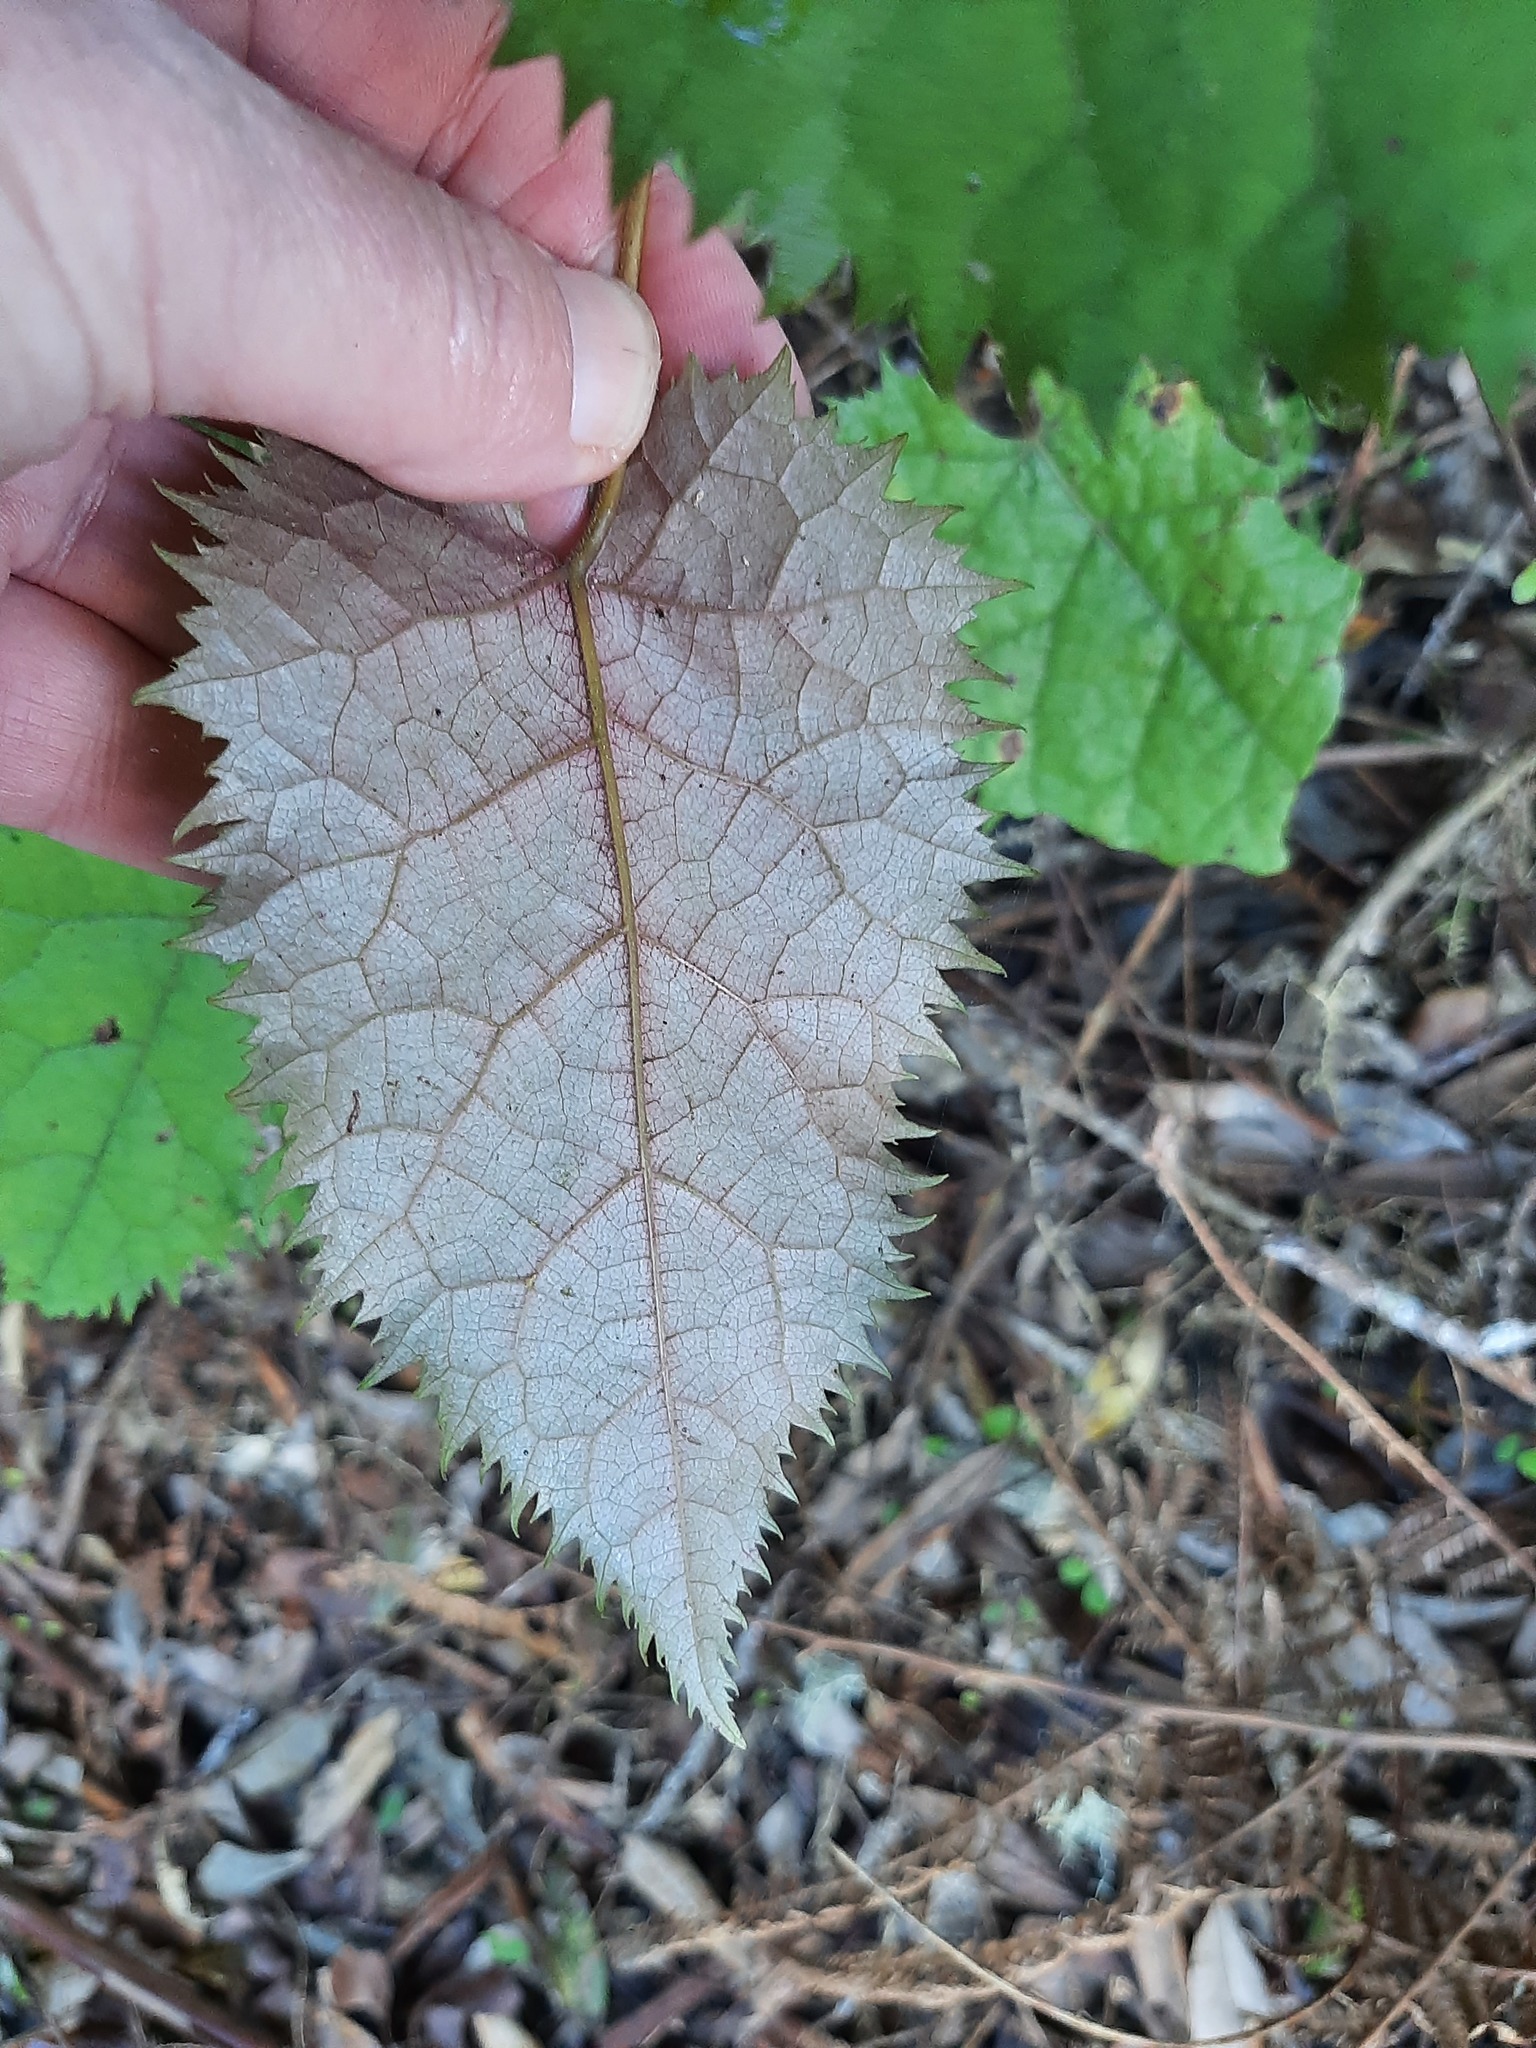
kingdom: Plantae
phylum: Tracheophyta
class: Magnoliopsida
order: Oxalidales
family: Elaeocarpaceae
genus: Aristotelia
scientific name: Aristotelia serrata
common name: New zealand wineberry
